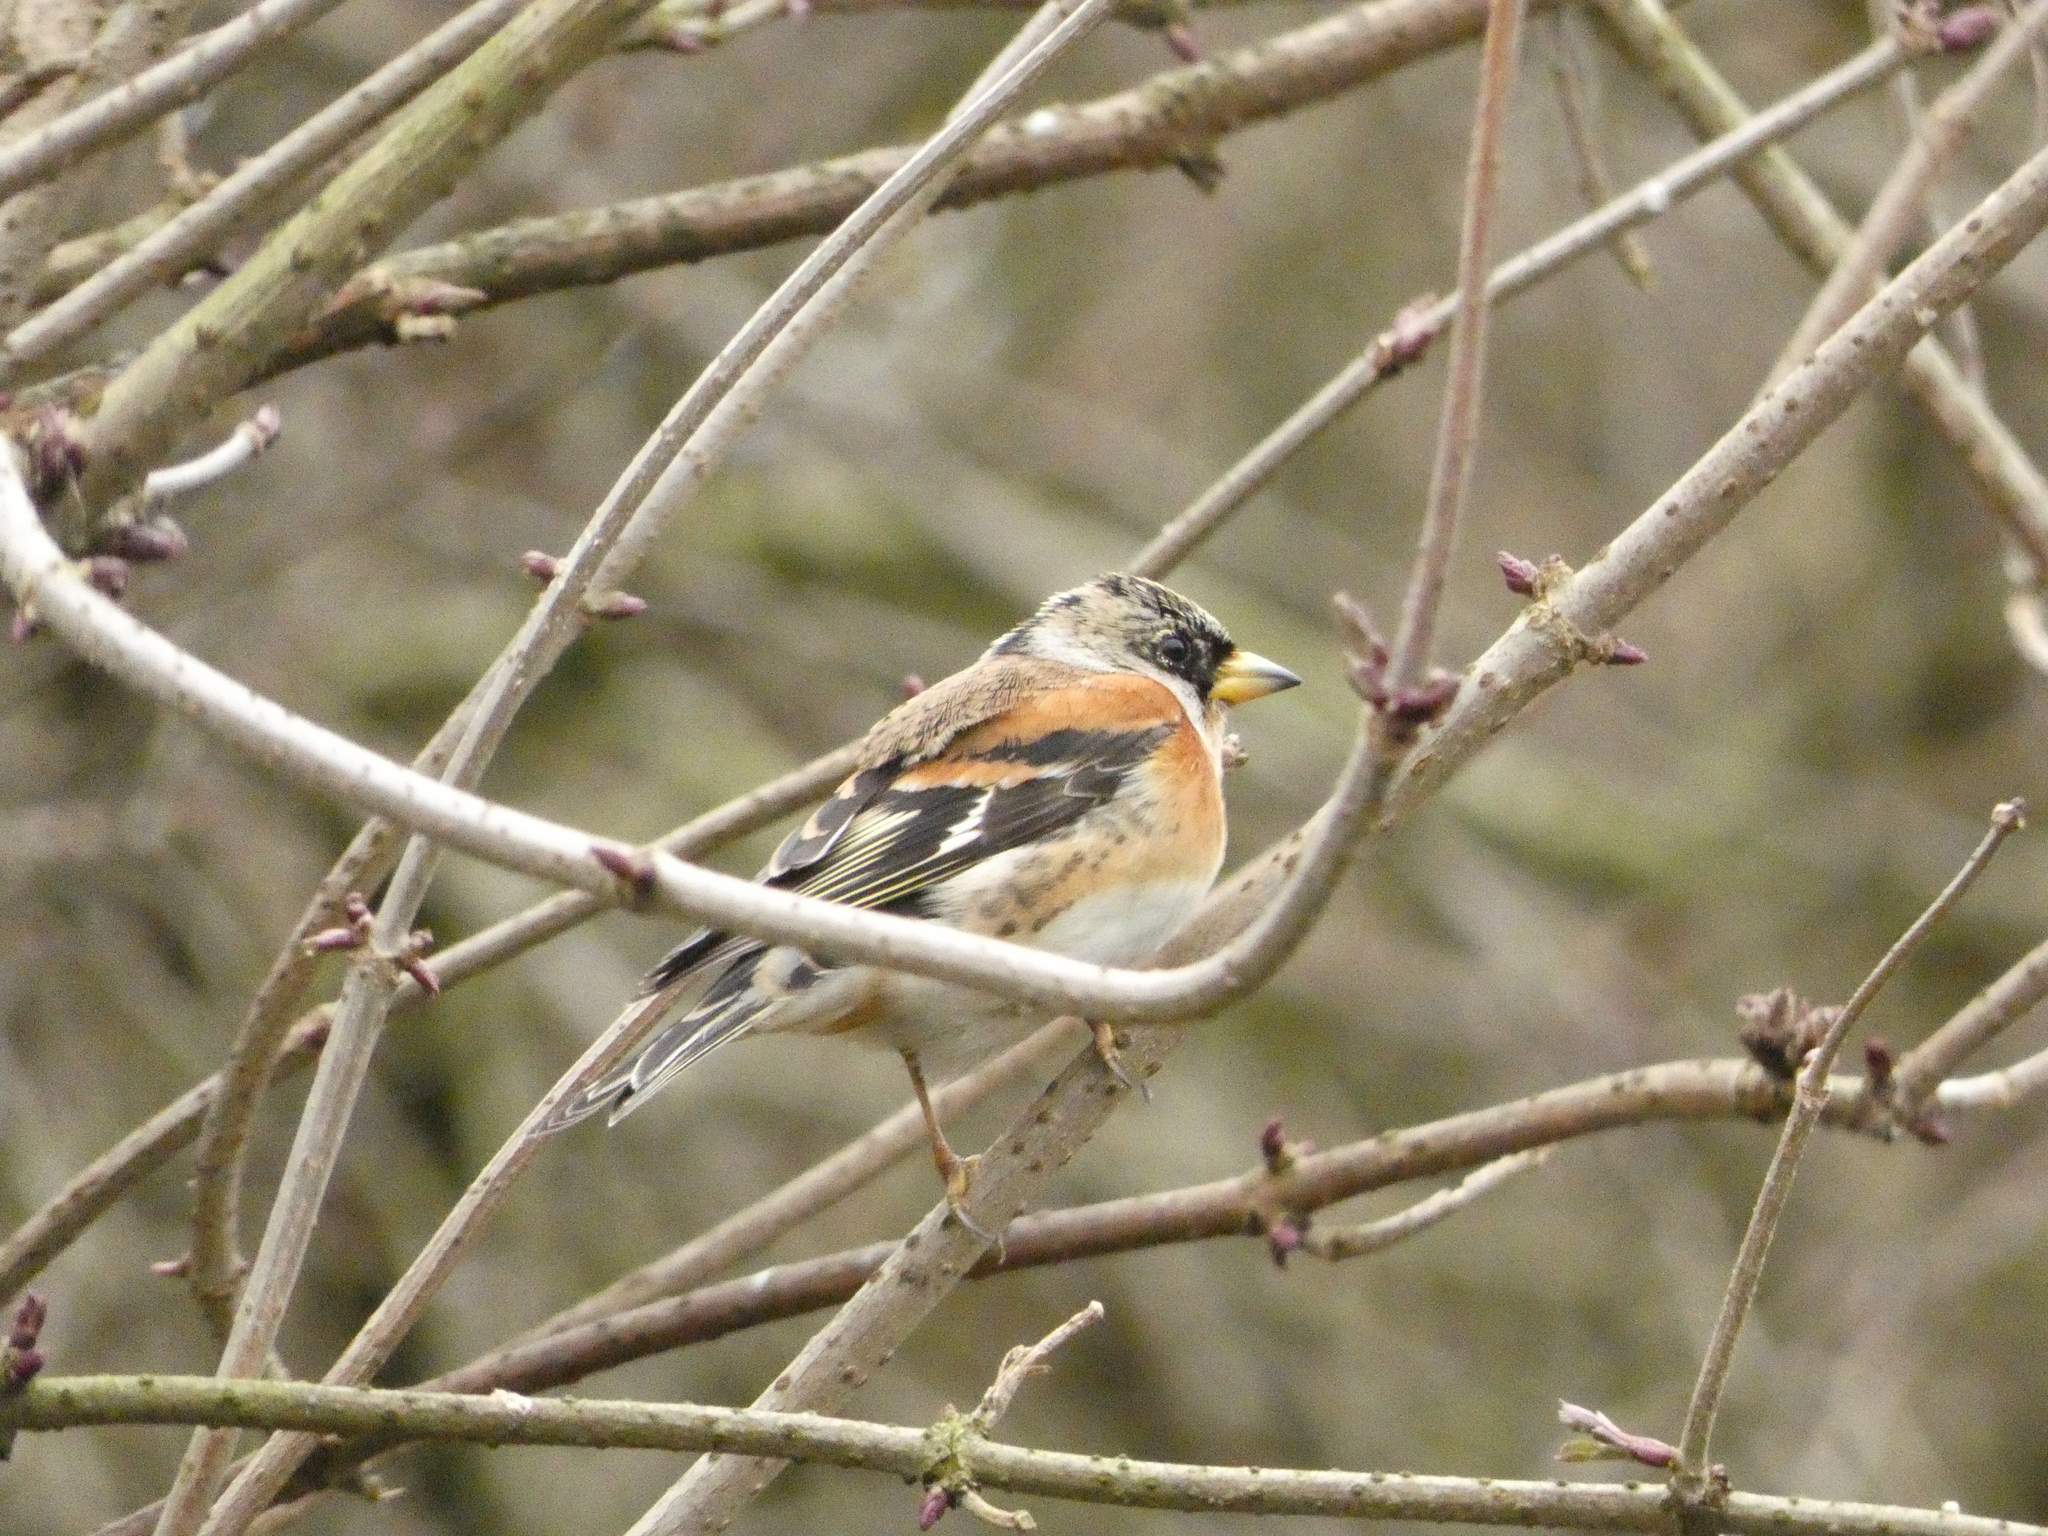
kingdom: Animalia
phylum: Chordata
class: Aves
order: Passeriformes
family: Fringillidae
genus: Fringilla
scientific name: Fringilla montifringilla
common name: Brambling
